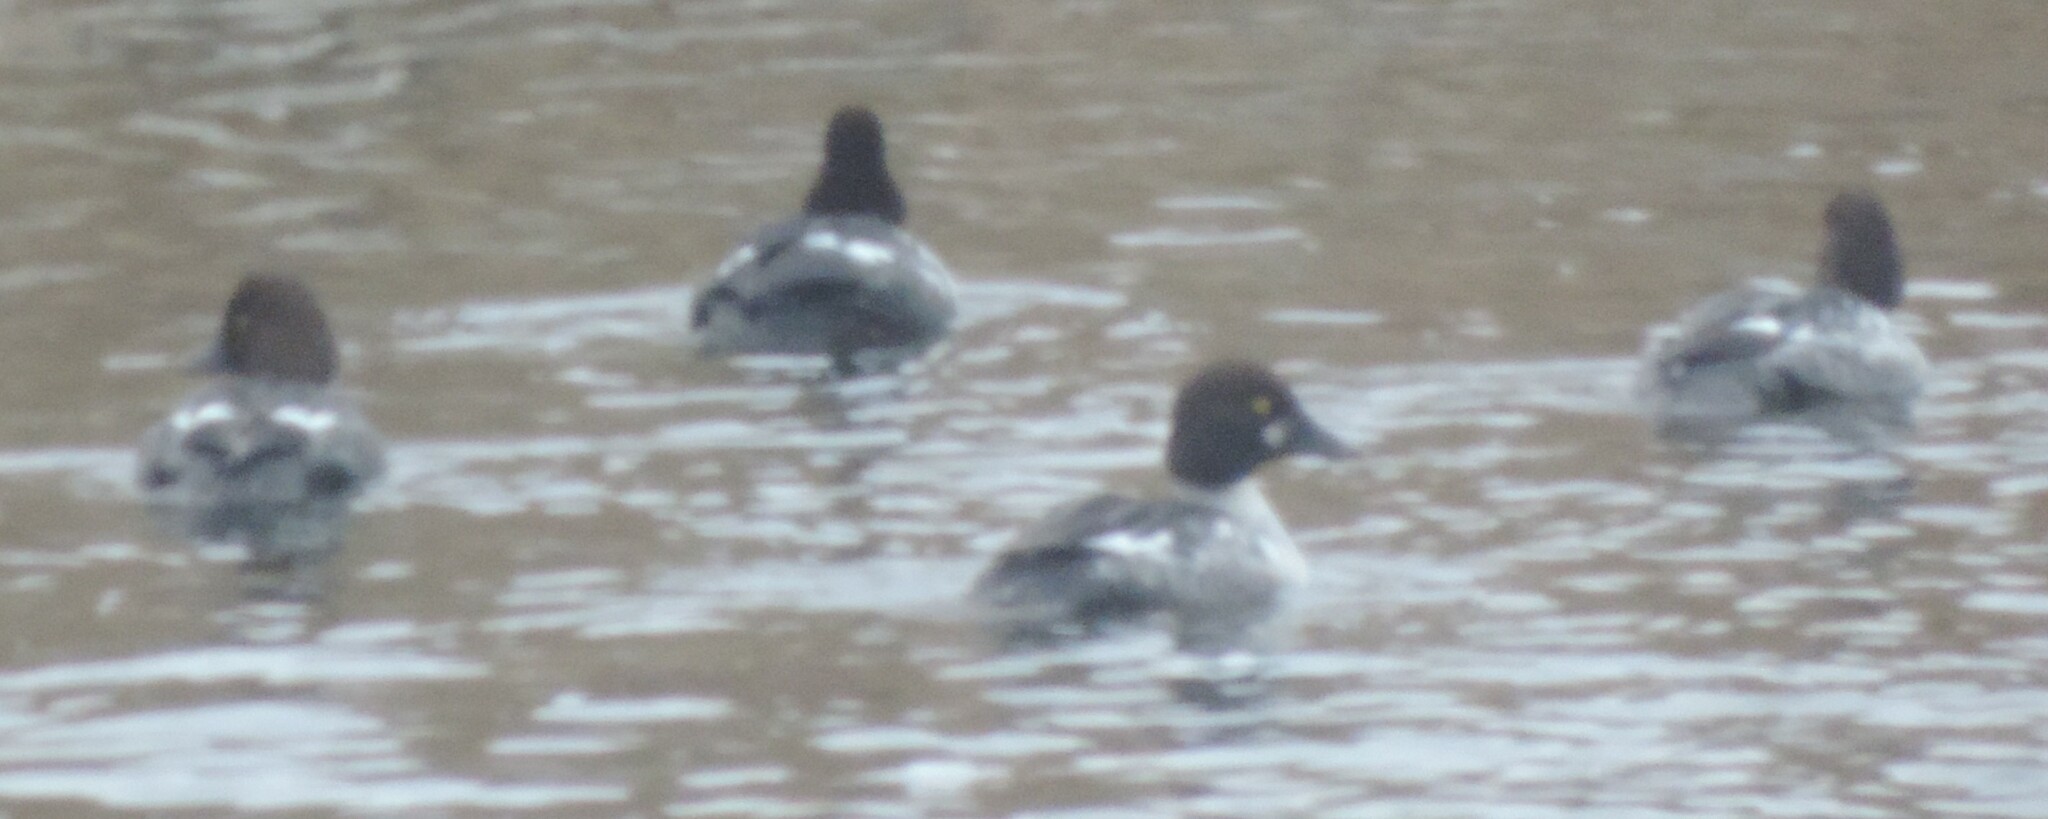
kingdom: Animalia
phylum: Chordata
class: Aves
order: Anseriformes
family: Anatidae
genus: Bucephala
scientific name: Bucephala clangula
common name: Common goldeneye
